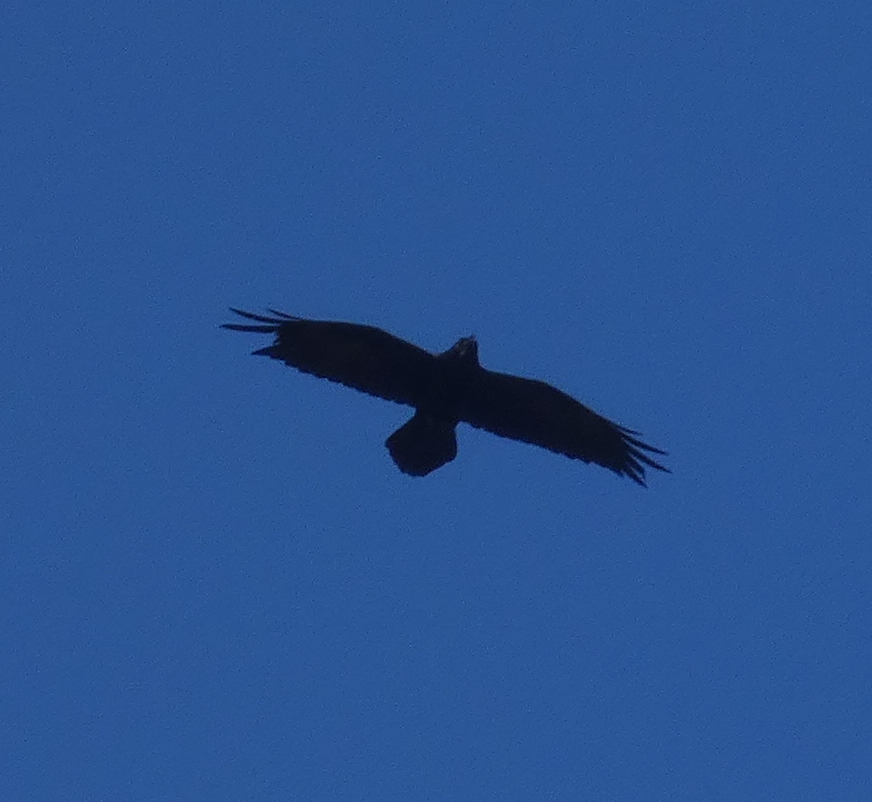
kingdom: Animalia
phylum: Chordata
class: Aves
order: Passeriformes
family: Corvidae
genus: Corvus
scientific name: Corvus corax
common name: Common raven
